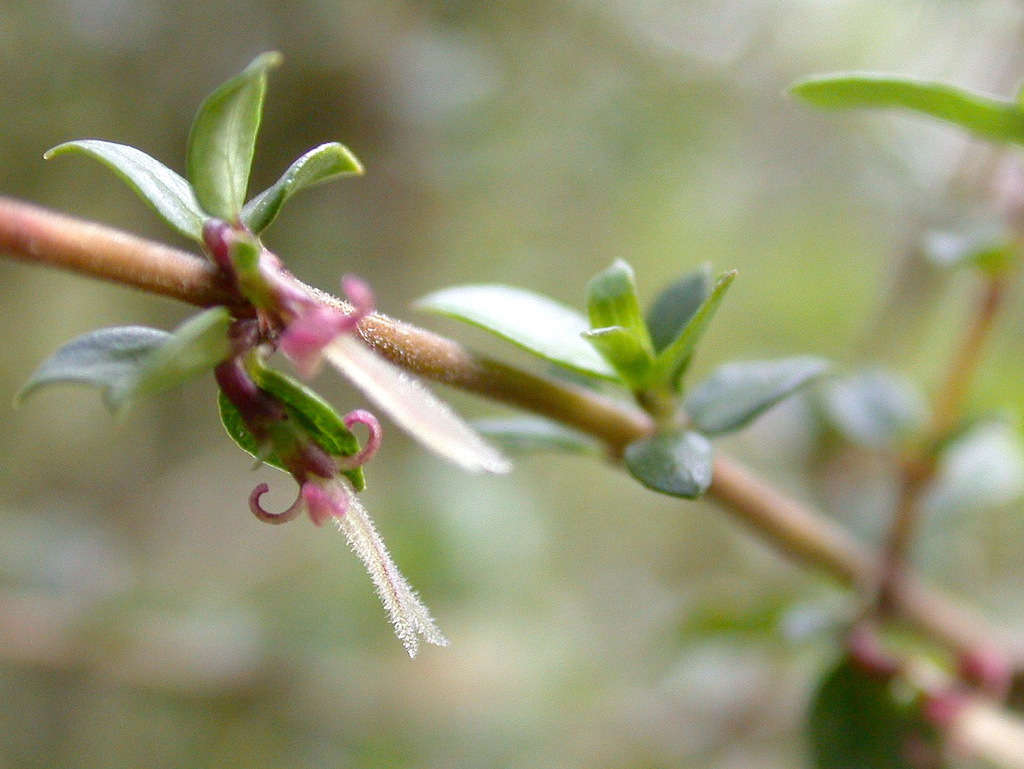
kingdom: Plantae
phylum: Tracheophyta
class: Magnoliopsida
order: Gentianales
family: Rubiaceae
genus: Coprosma
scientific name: Coprosma quadrifida
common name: Prickly currantbush
